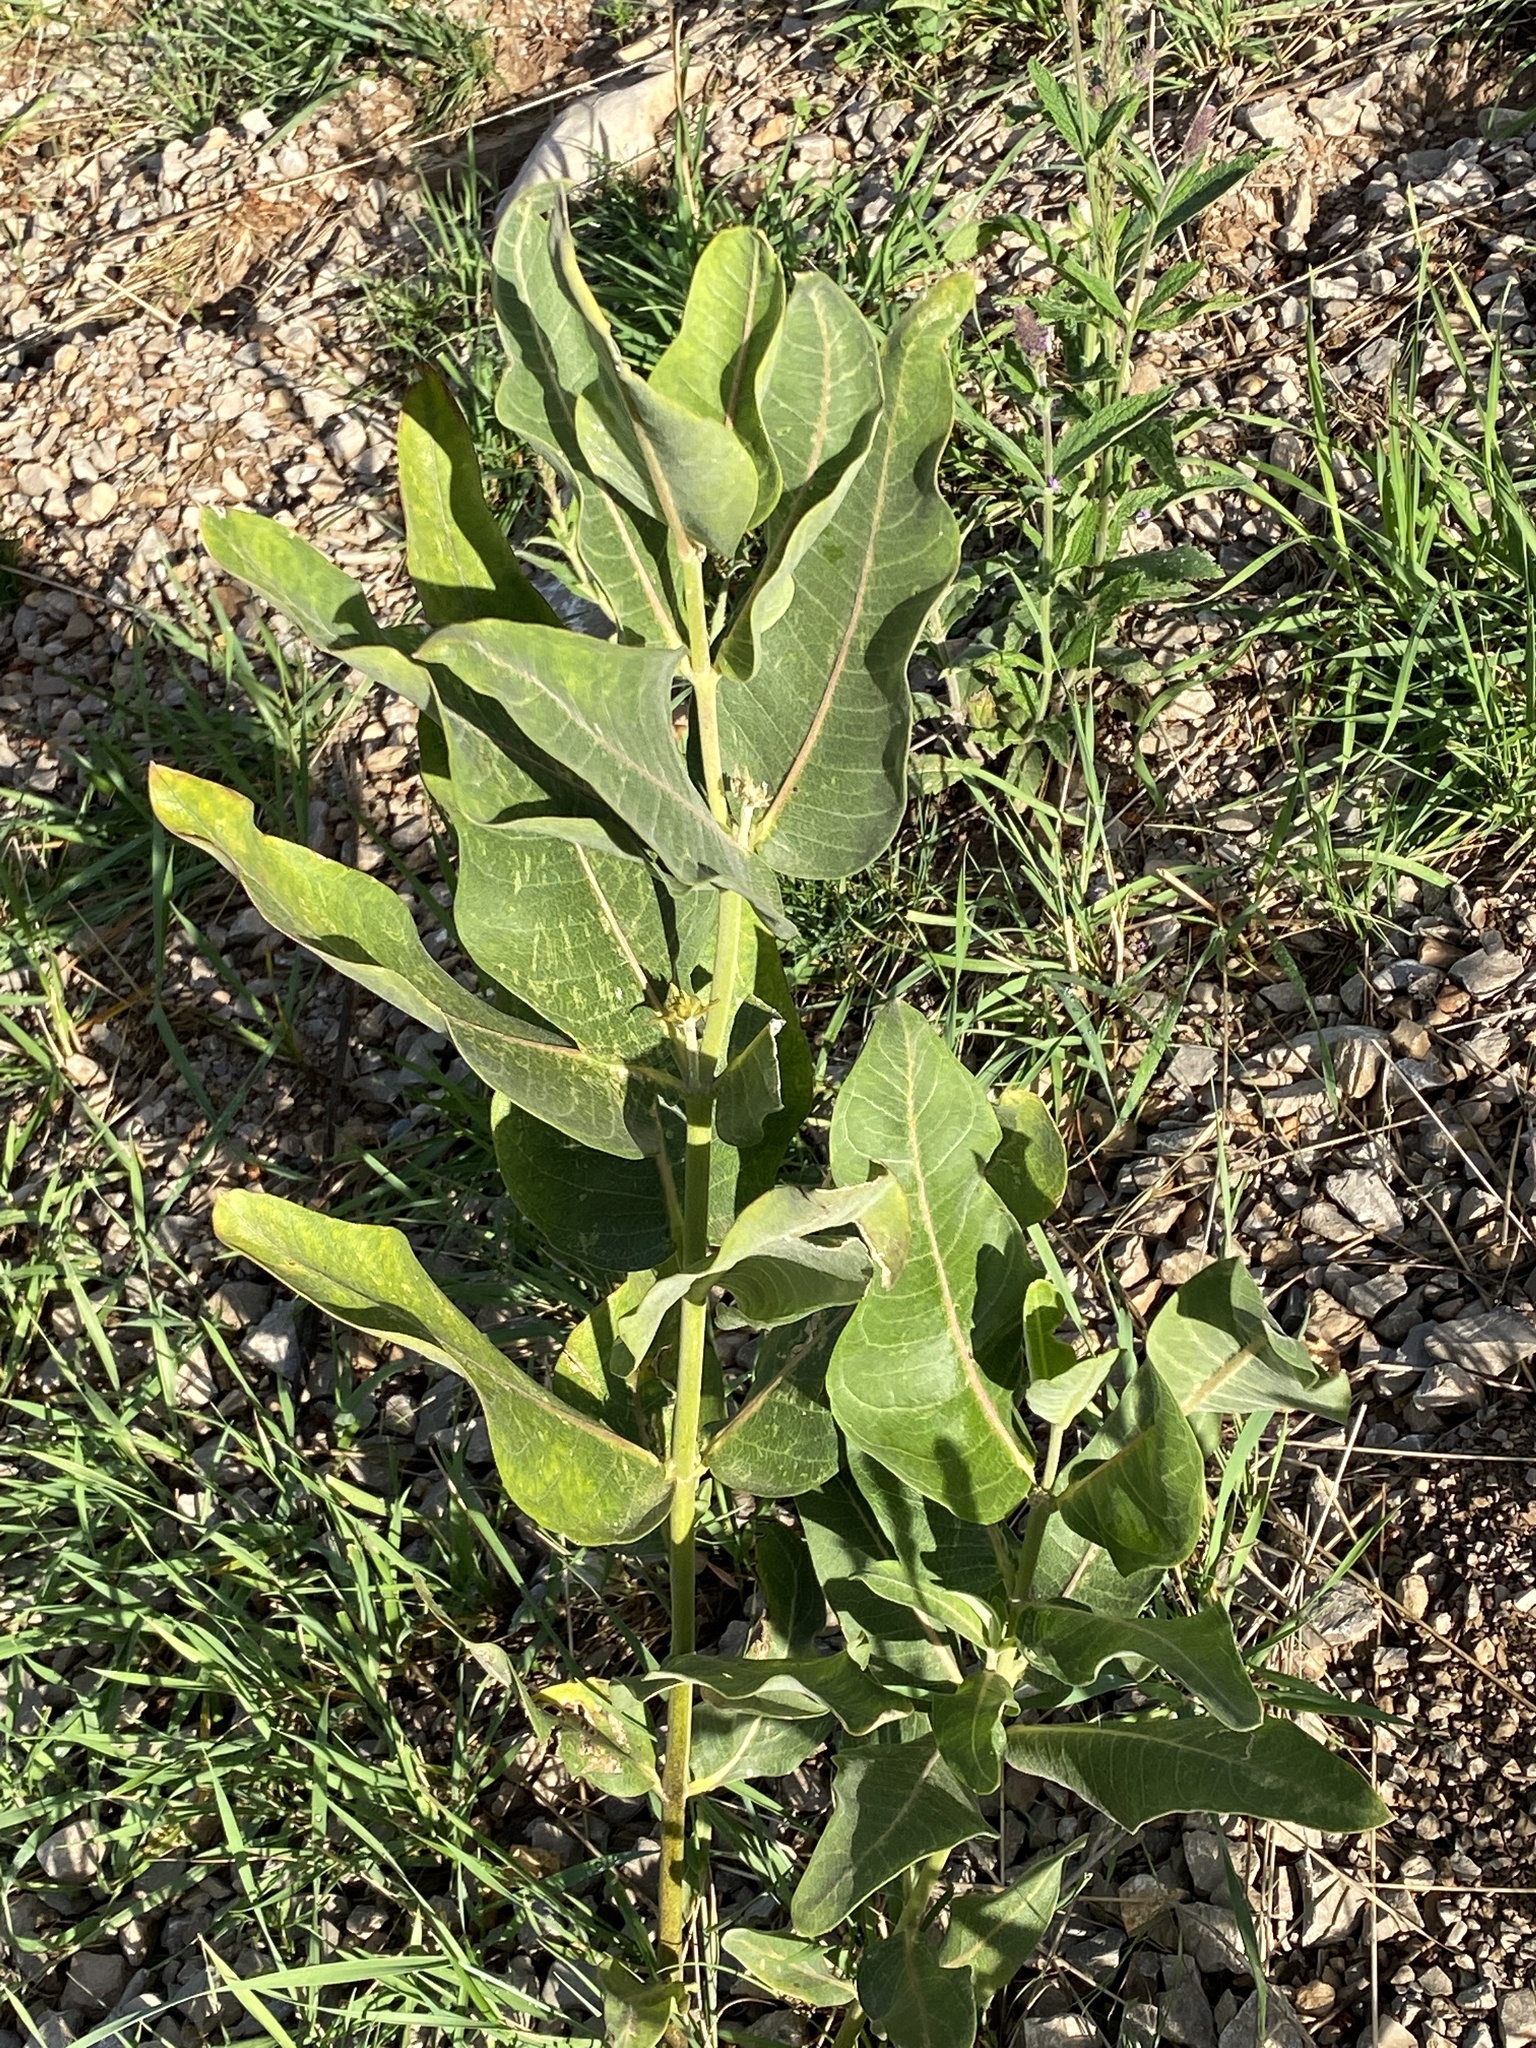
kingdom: Plantae
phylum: Tracheophyta
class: Magnoliopsida
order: Gentianales
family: Apocynaceae
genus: Asclepias
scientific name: Asclepias speciosa
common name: Showy milkweed
